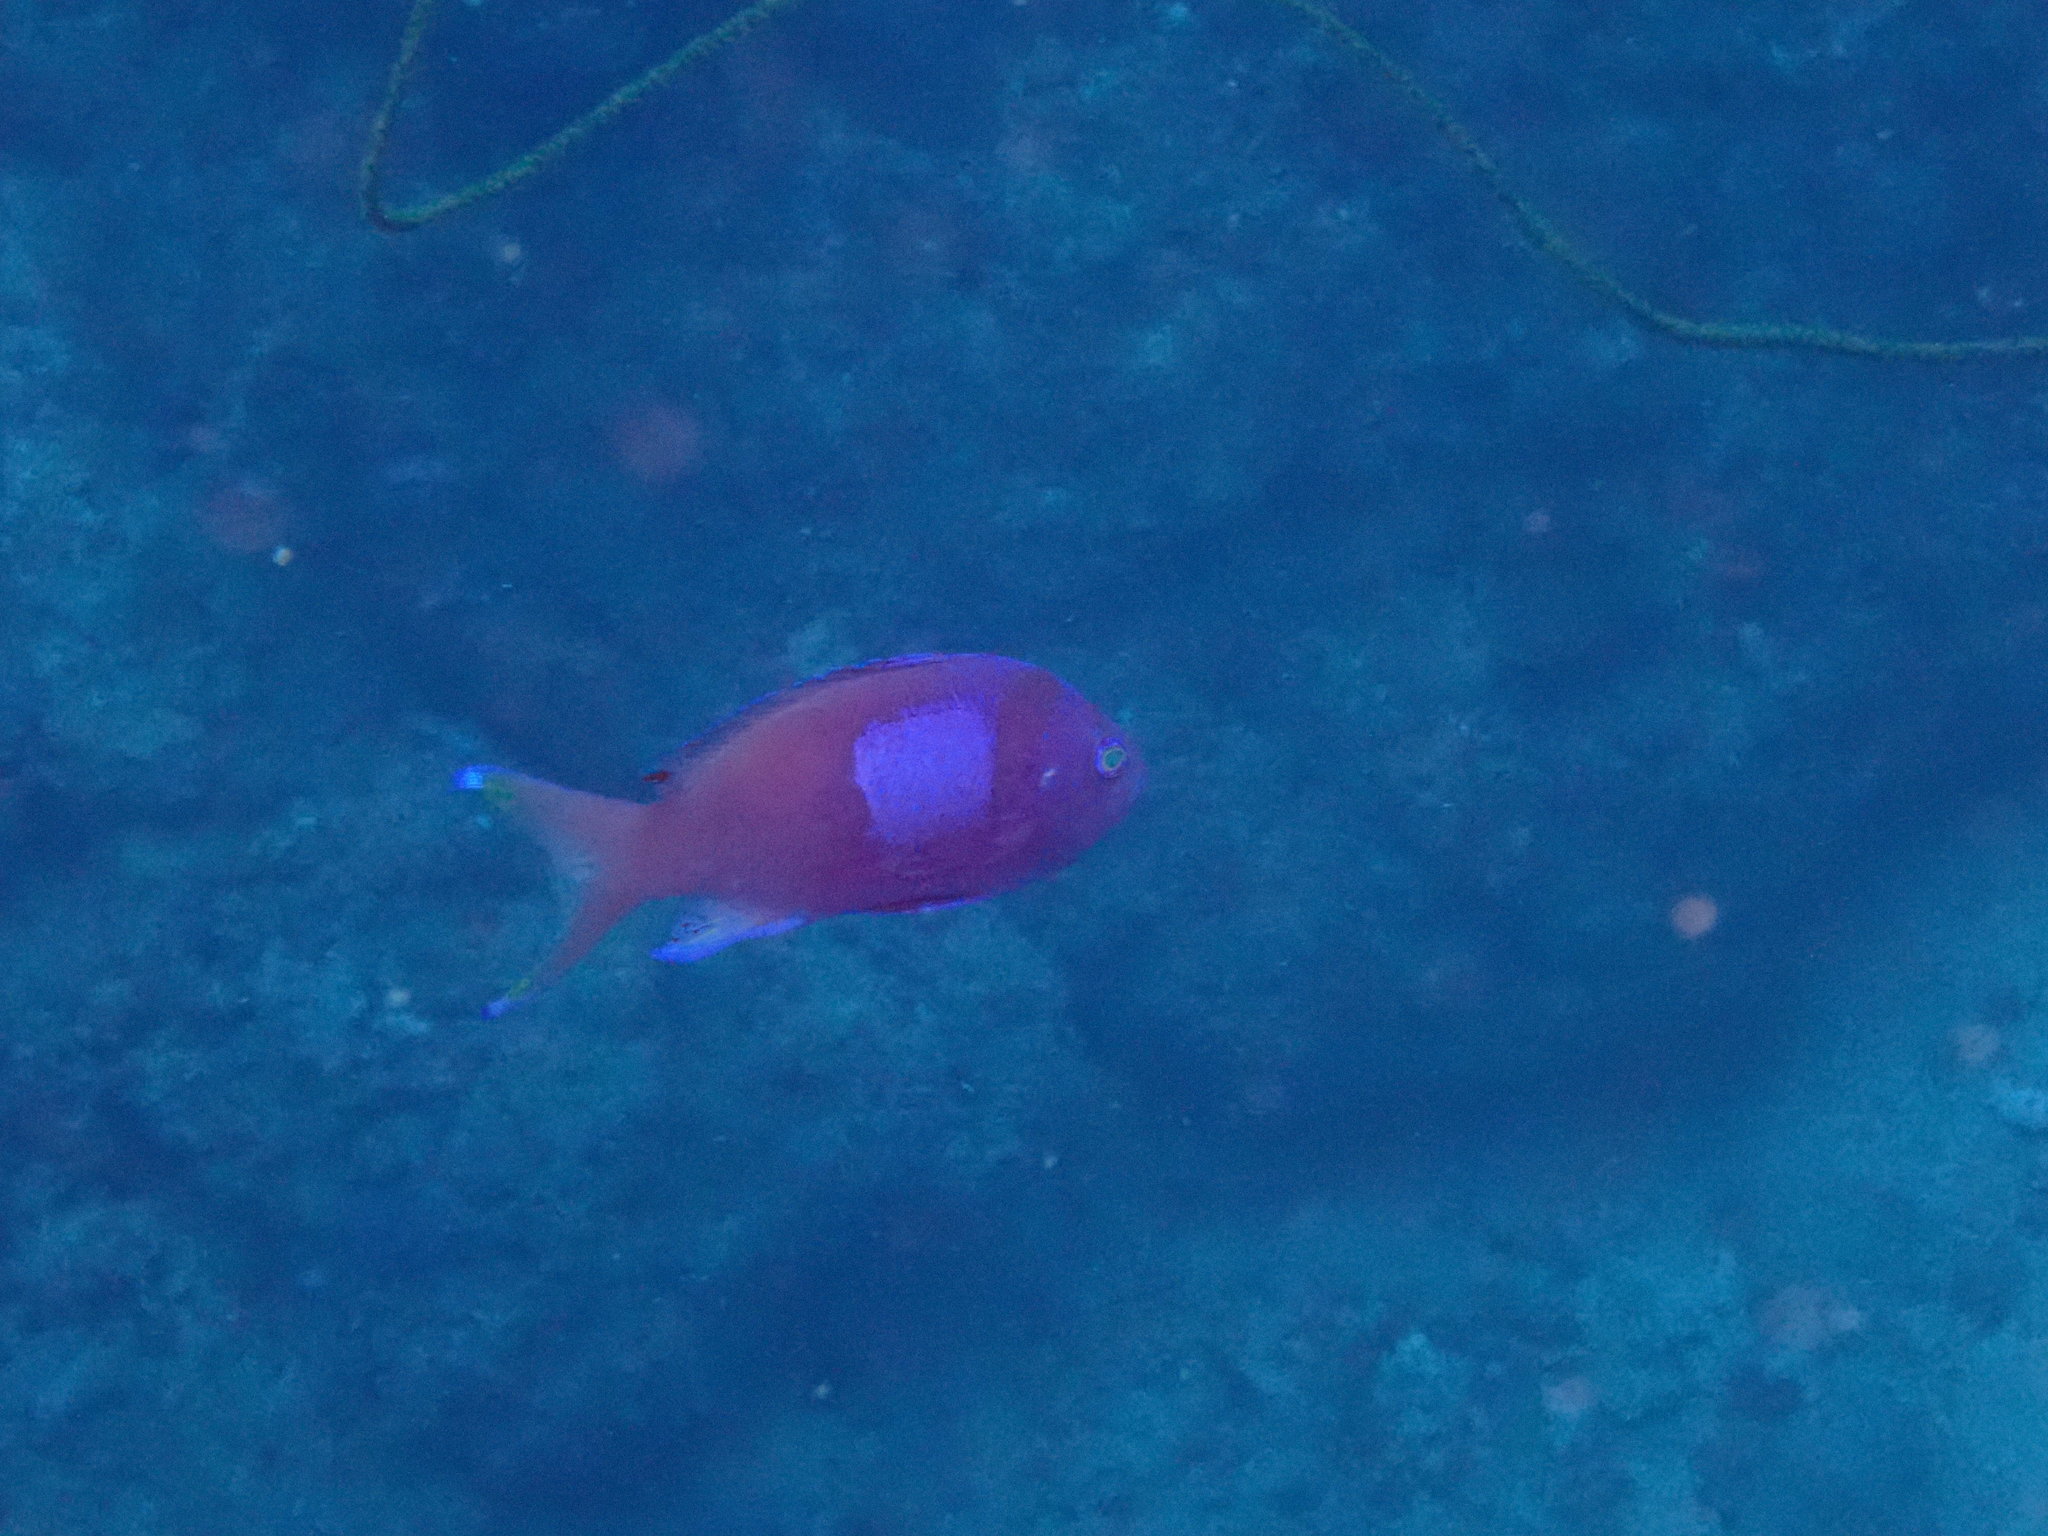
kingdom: Animalia
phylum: Chordata
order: Perciformes
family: Serranidae
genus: Pseudanthias
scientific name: Pseudanthias pleurotaenia
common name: Mirror basslet
